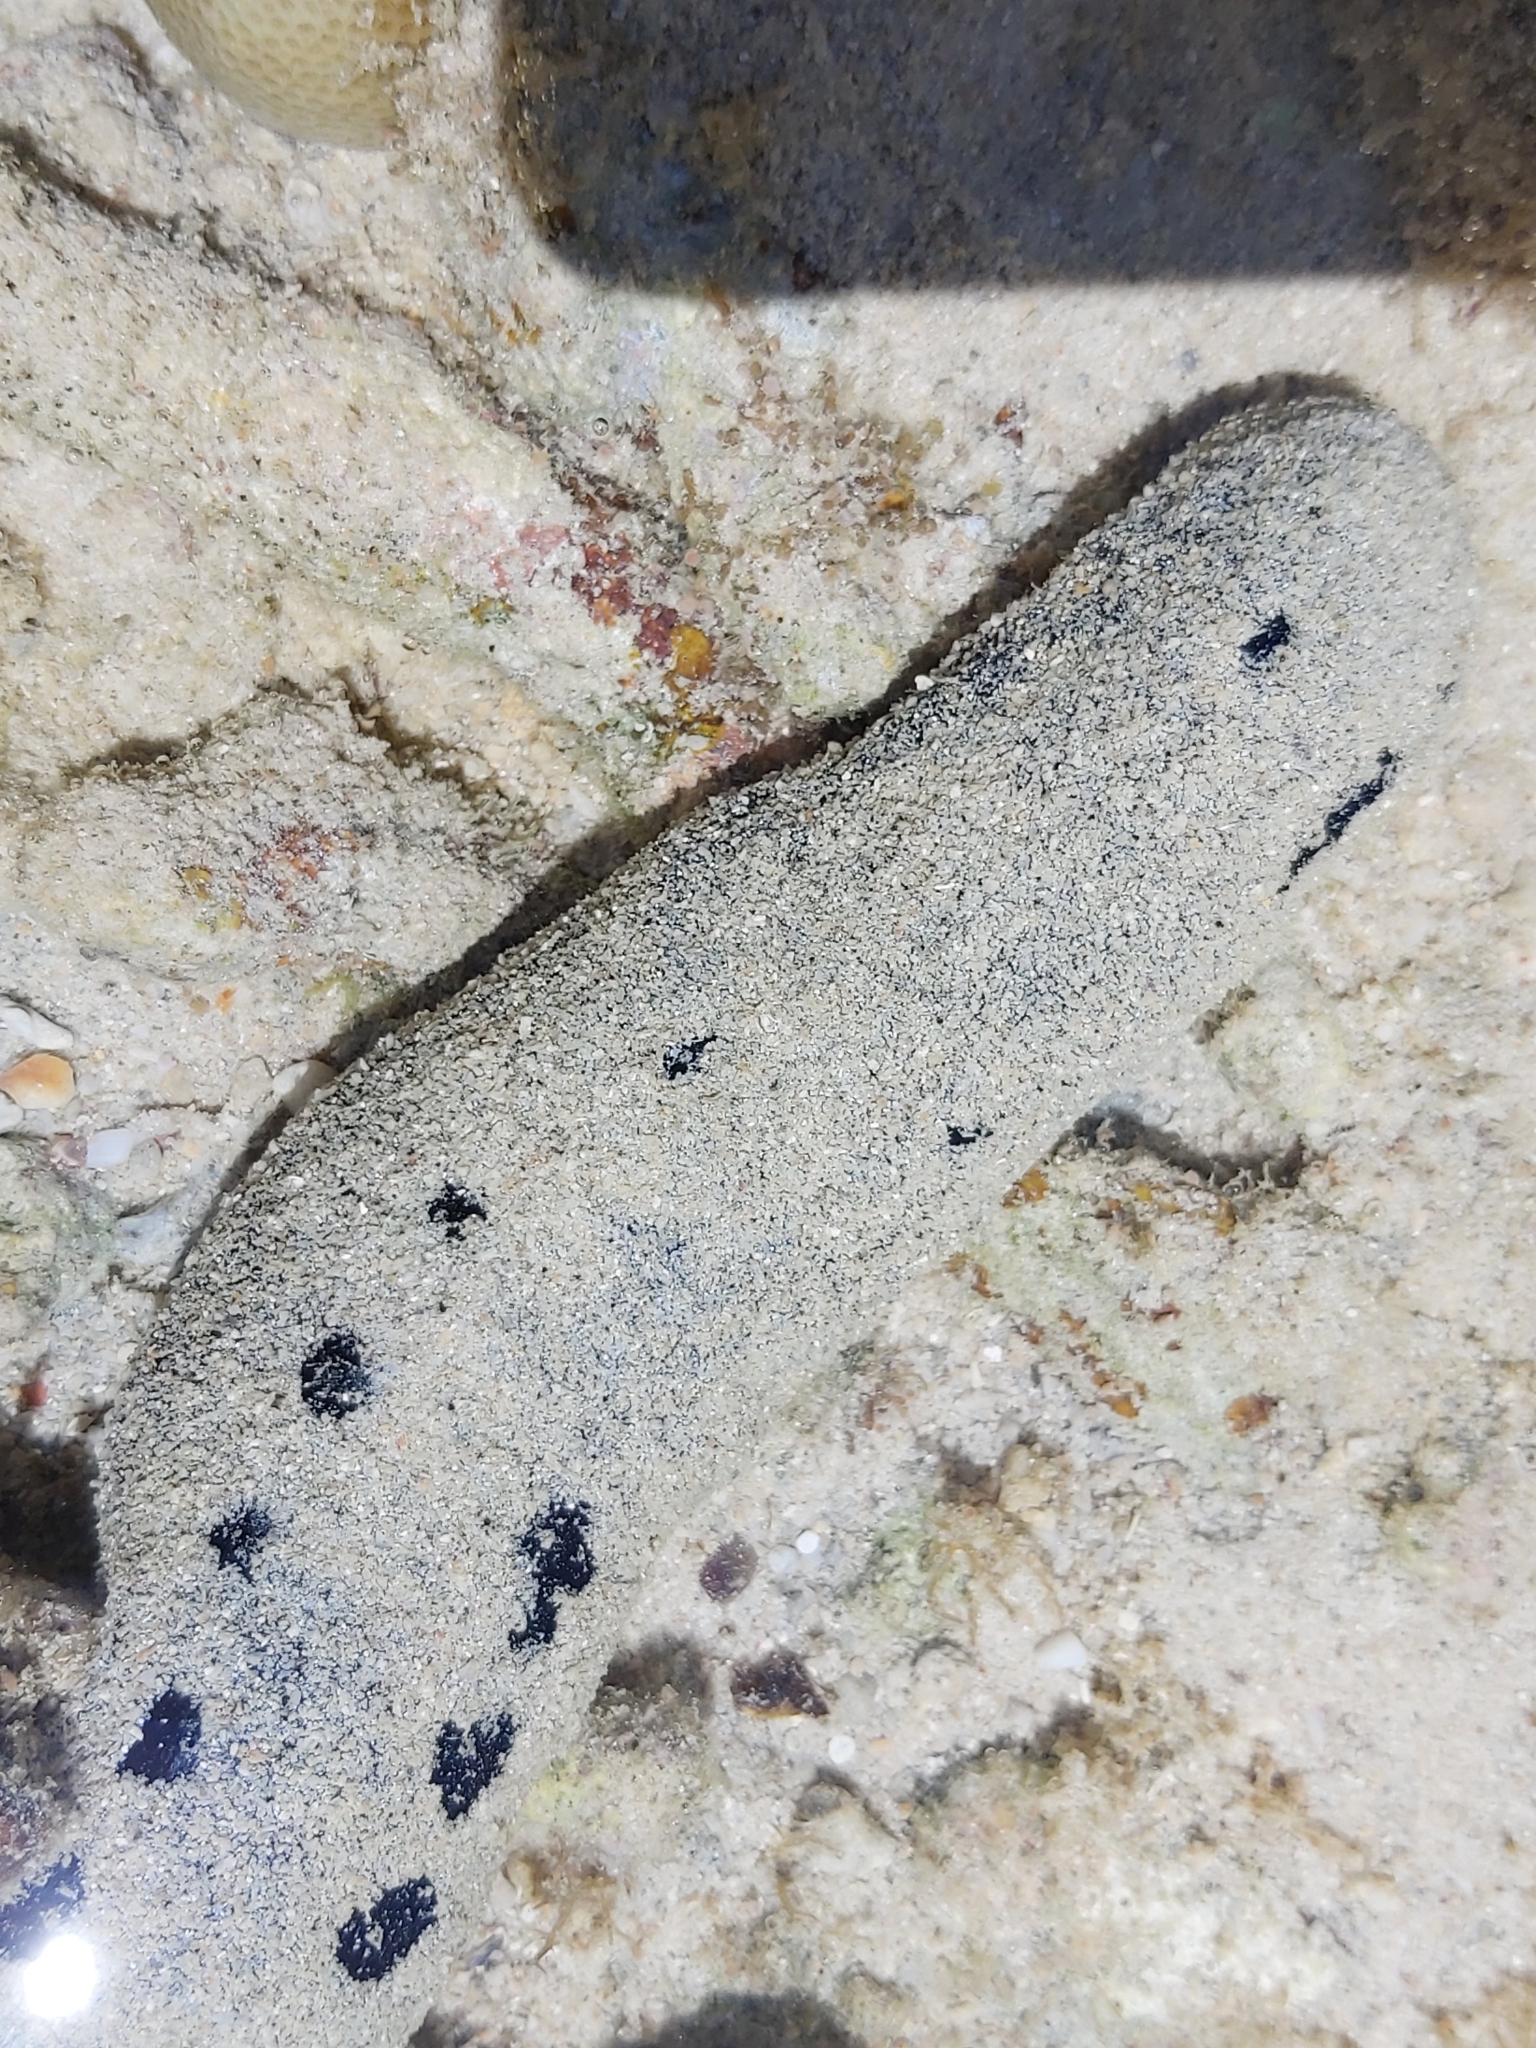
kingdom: Animalia
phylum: Echinodermata
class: Holothuroidea
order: Holothuriida
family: Holothuriidae
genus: Holothuria
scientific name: Holothuria atra
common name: Lollyfish
